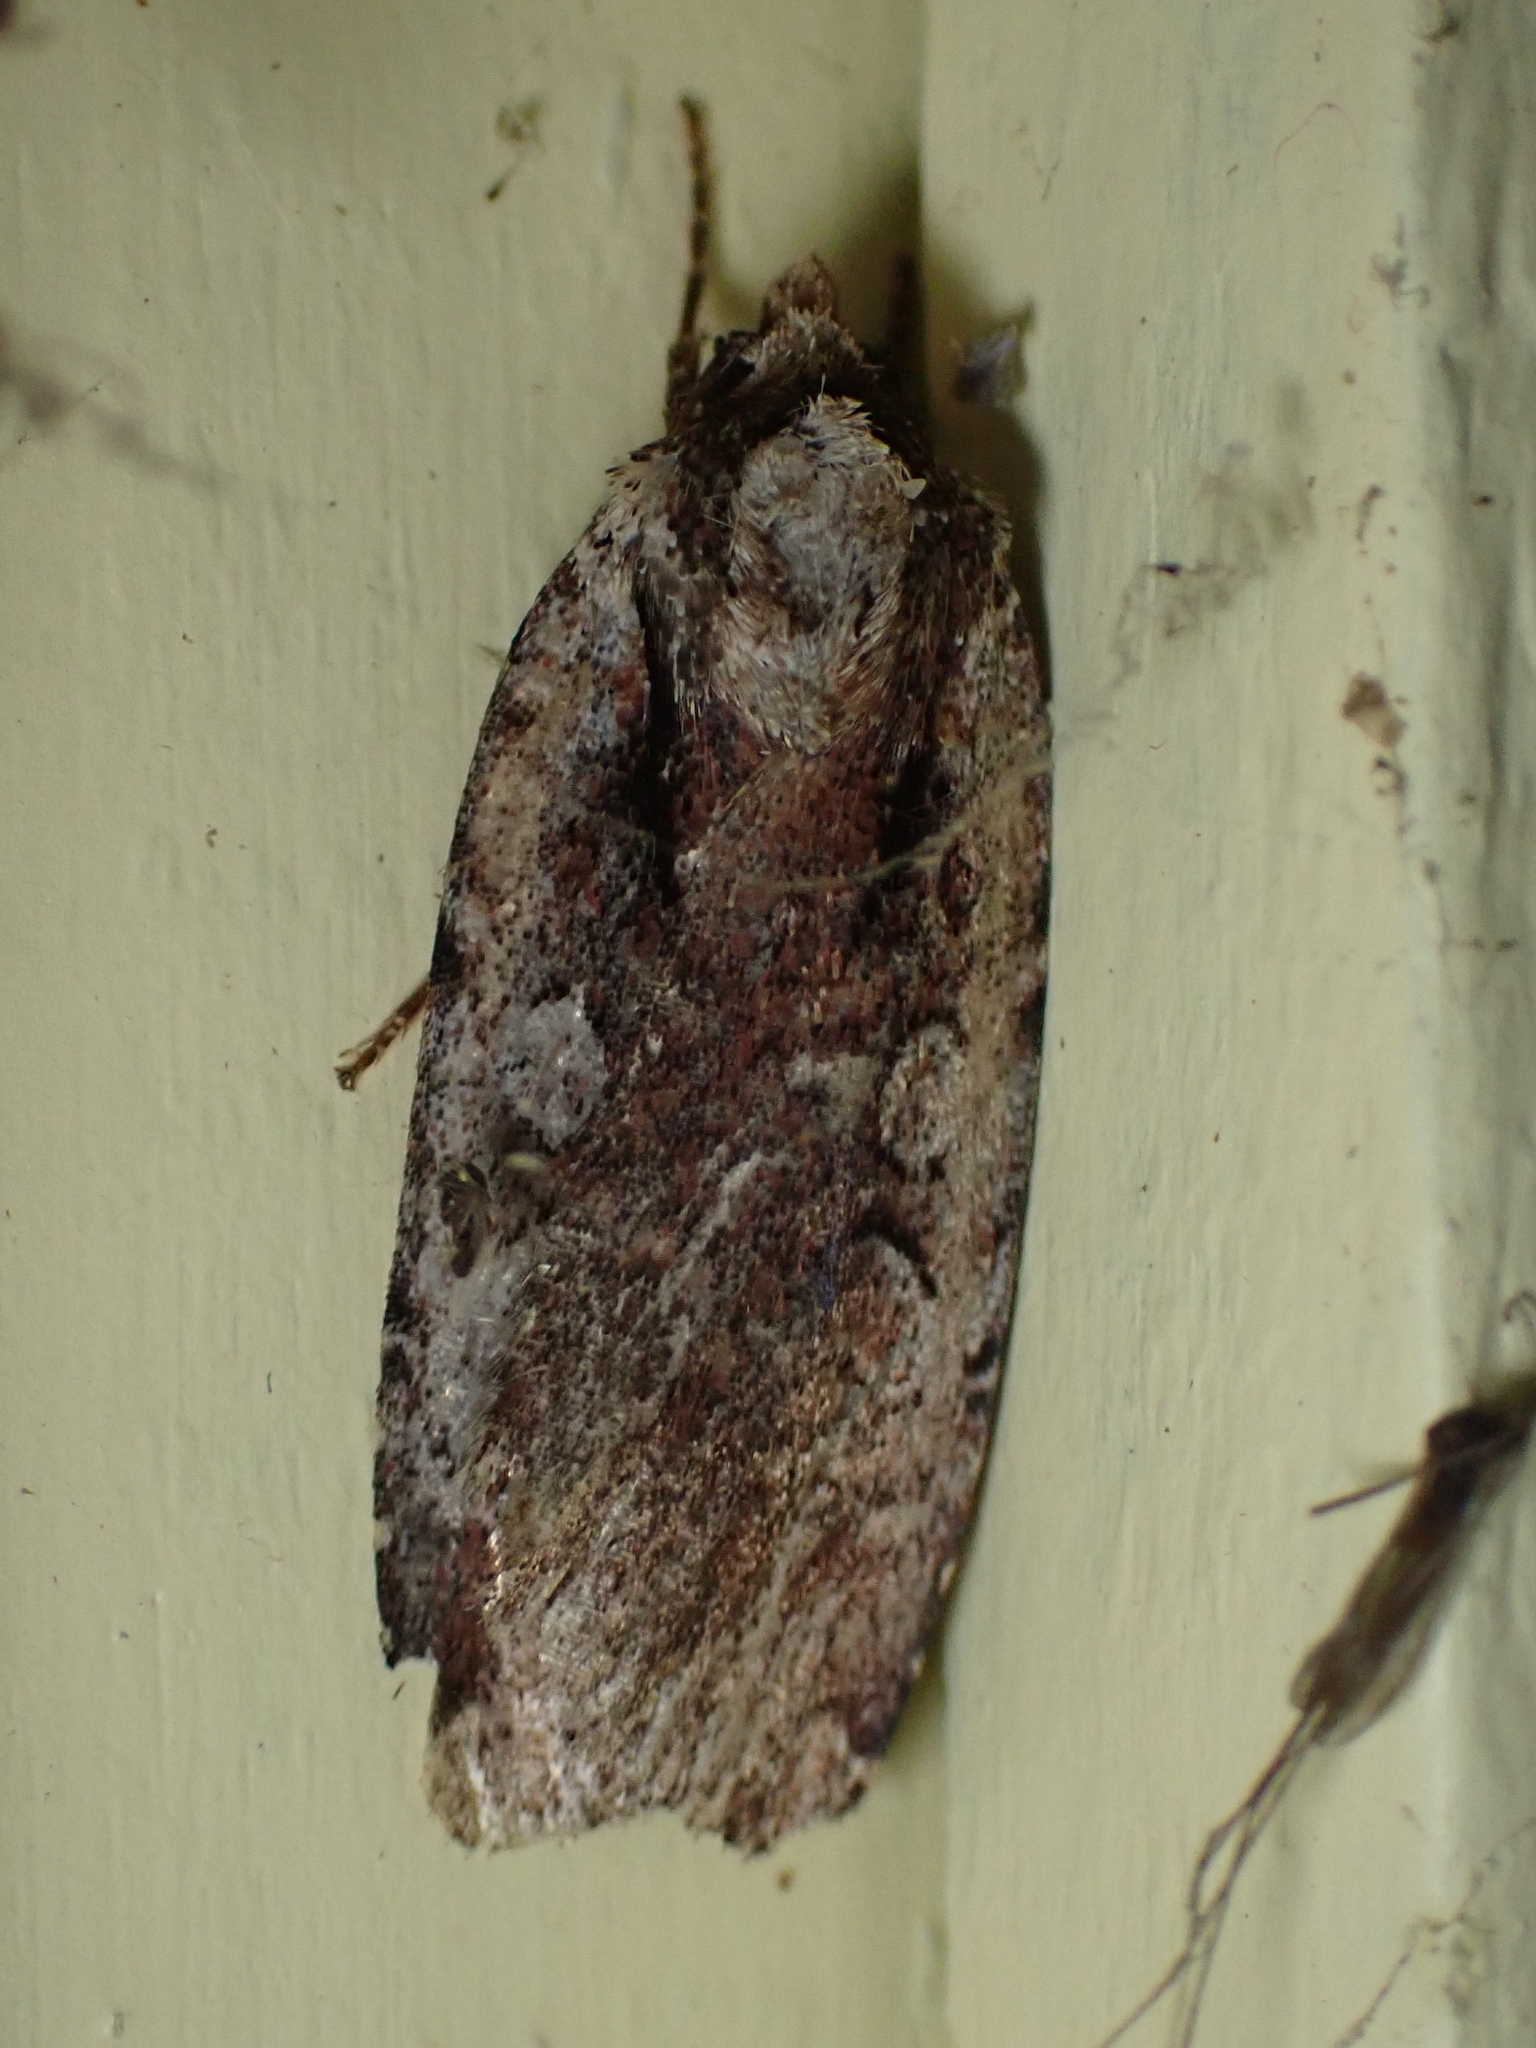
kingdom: Animalia
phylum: Arthropoda
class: Insecta
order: Lepidoptera
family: Noctuidae
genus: Eueretagrotis
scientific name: Eueretagrotis attentus
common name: Attentive dart
